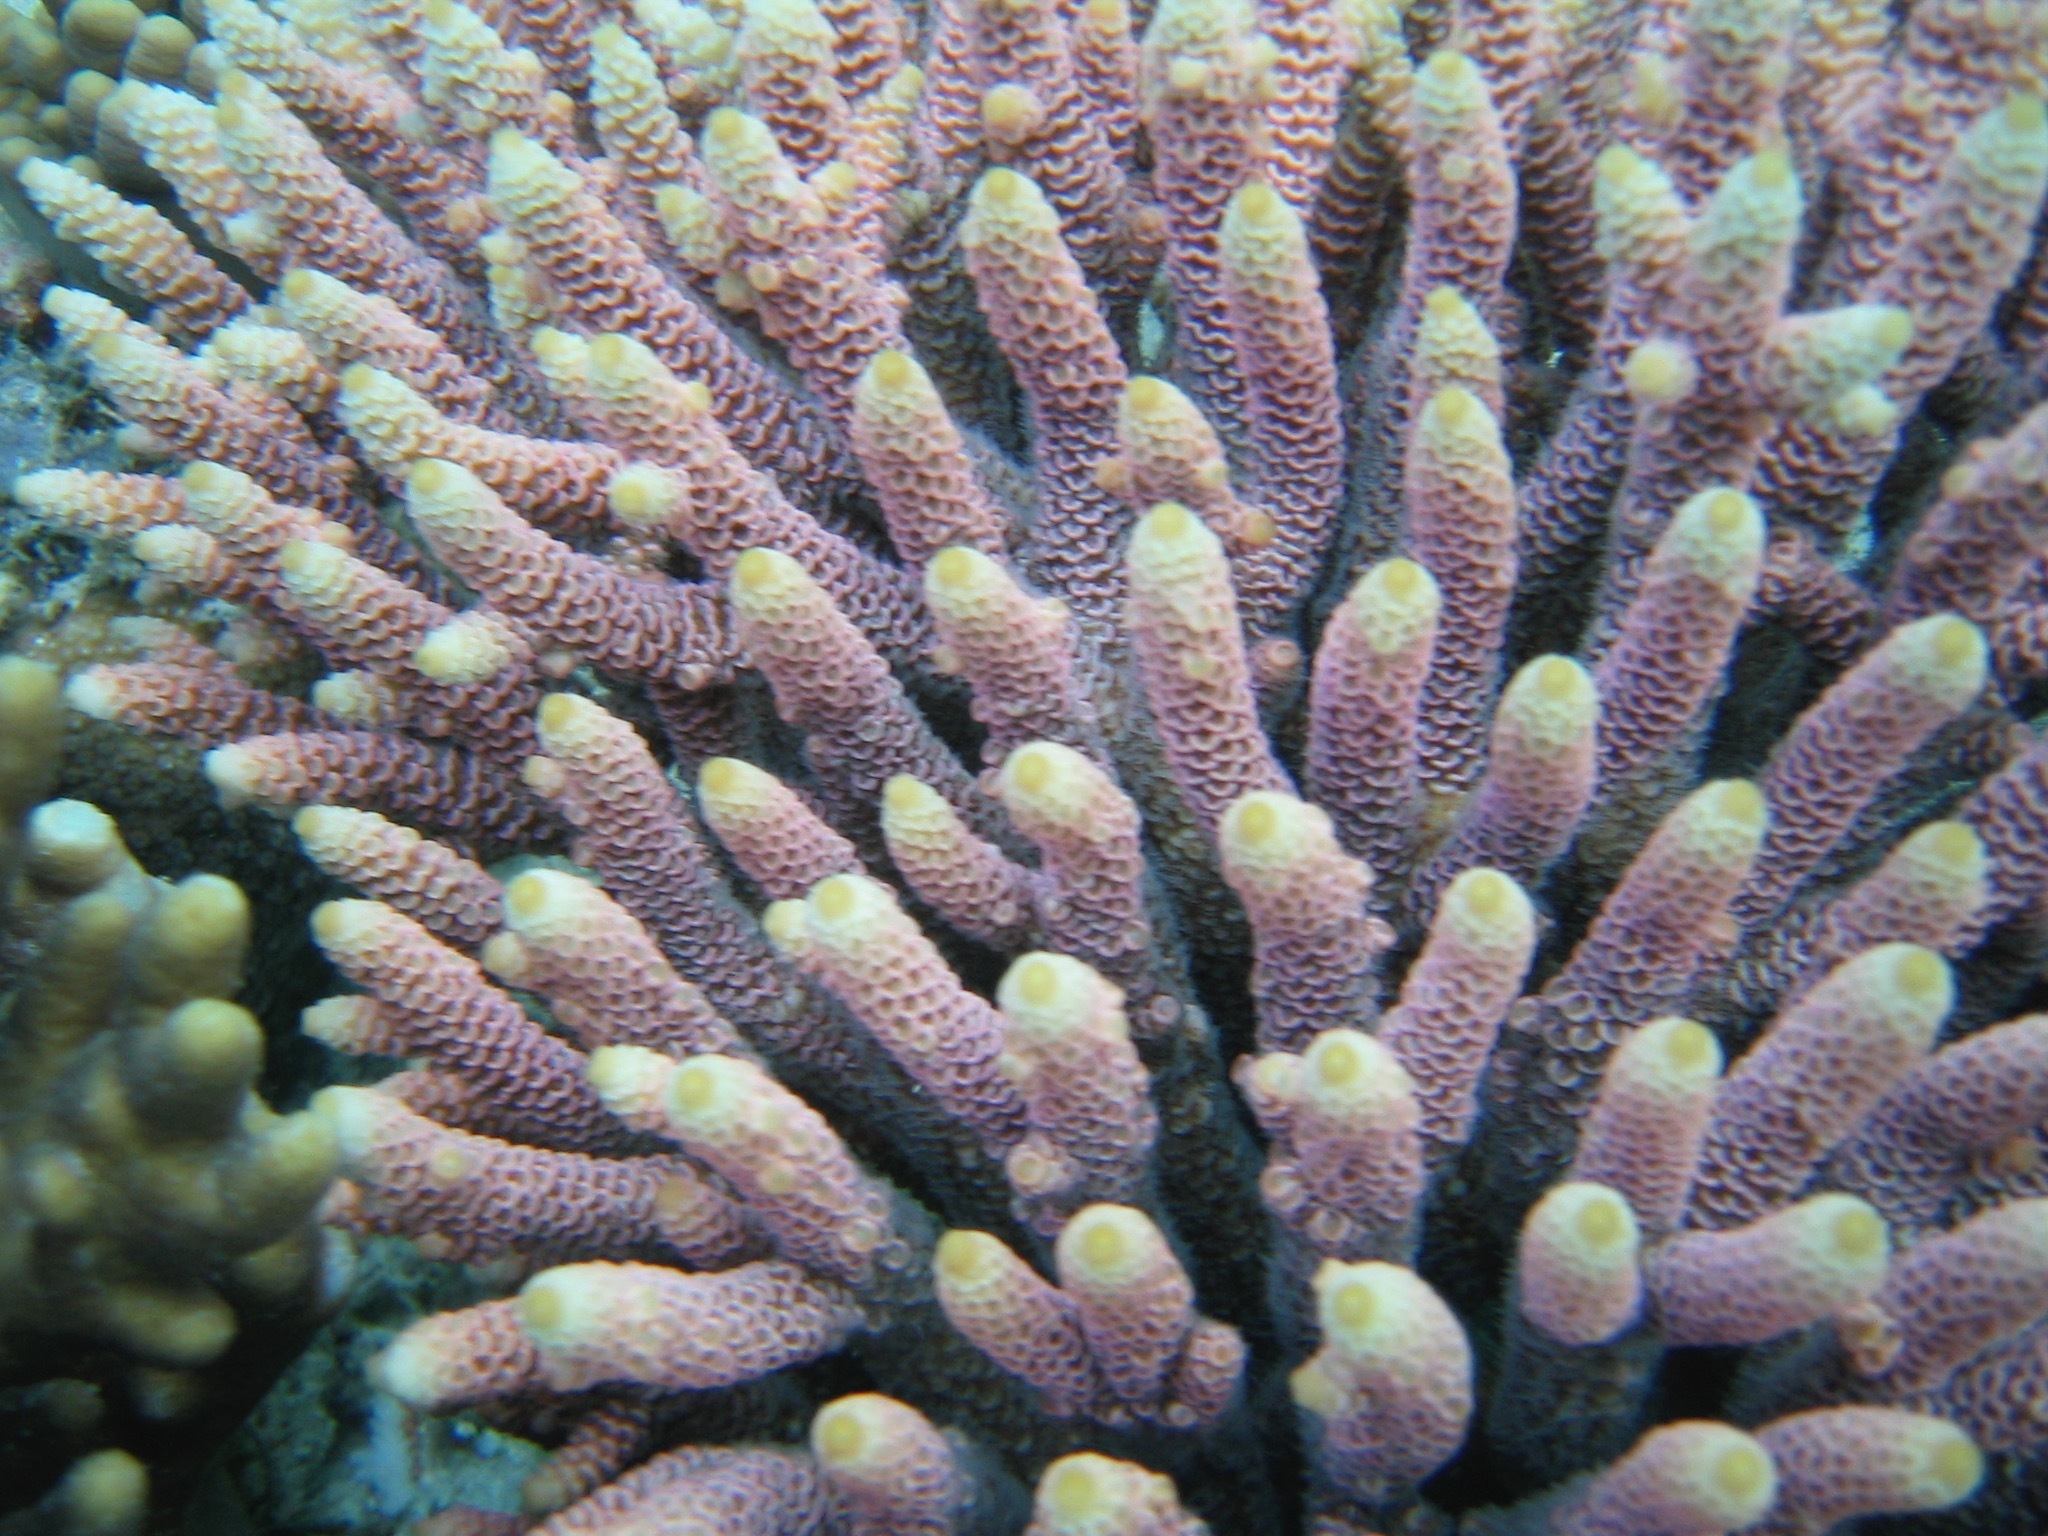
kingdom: Animalia
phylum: Cnidaria
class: Anthozoa
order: Scleractinia
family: Acroporidae
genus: Acropora
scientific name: Acropora millepora
